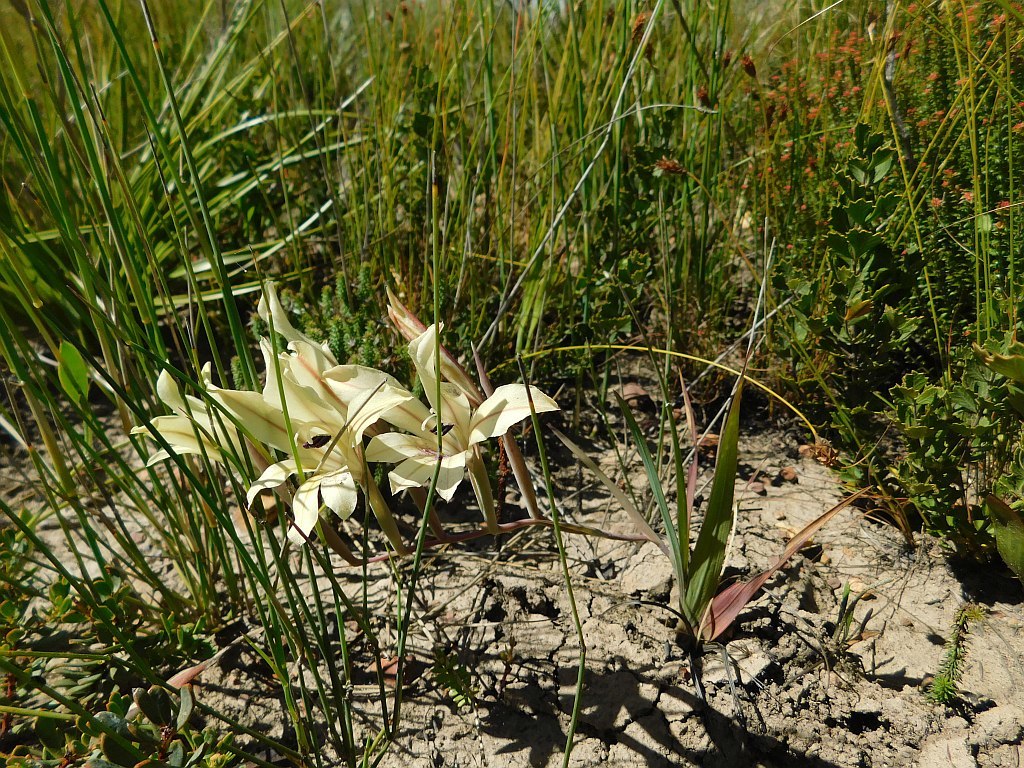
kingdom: Plantae
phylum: Tracheophyta
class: Liliopsida
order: Asparagales
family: Iridaceae
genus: Gladiolus
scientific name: Gladiolus floribundus
